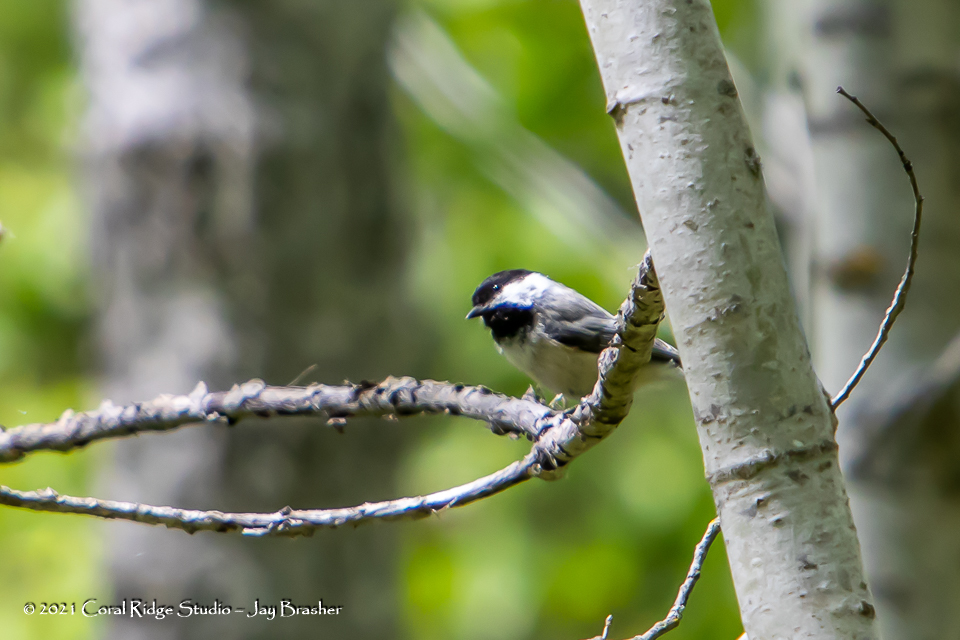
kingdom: Animalia
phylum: Chordata
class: Aves
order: Passeriformes
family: Paridae
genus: Poecile
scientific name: Poecile atricapillus
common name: Black-capped chickadee
